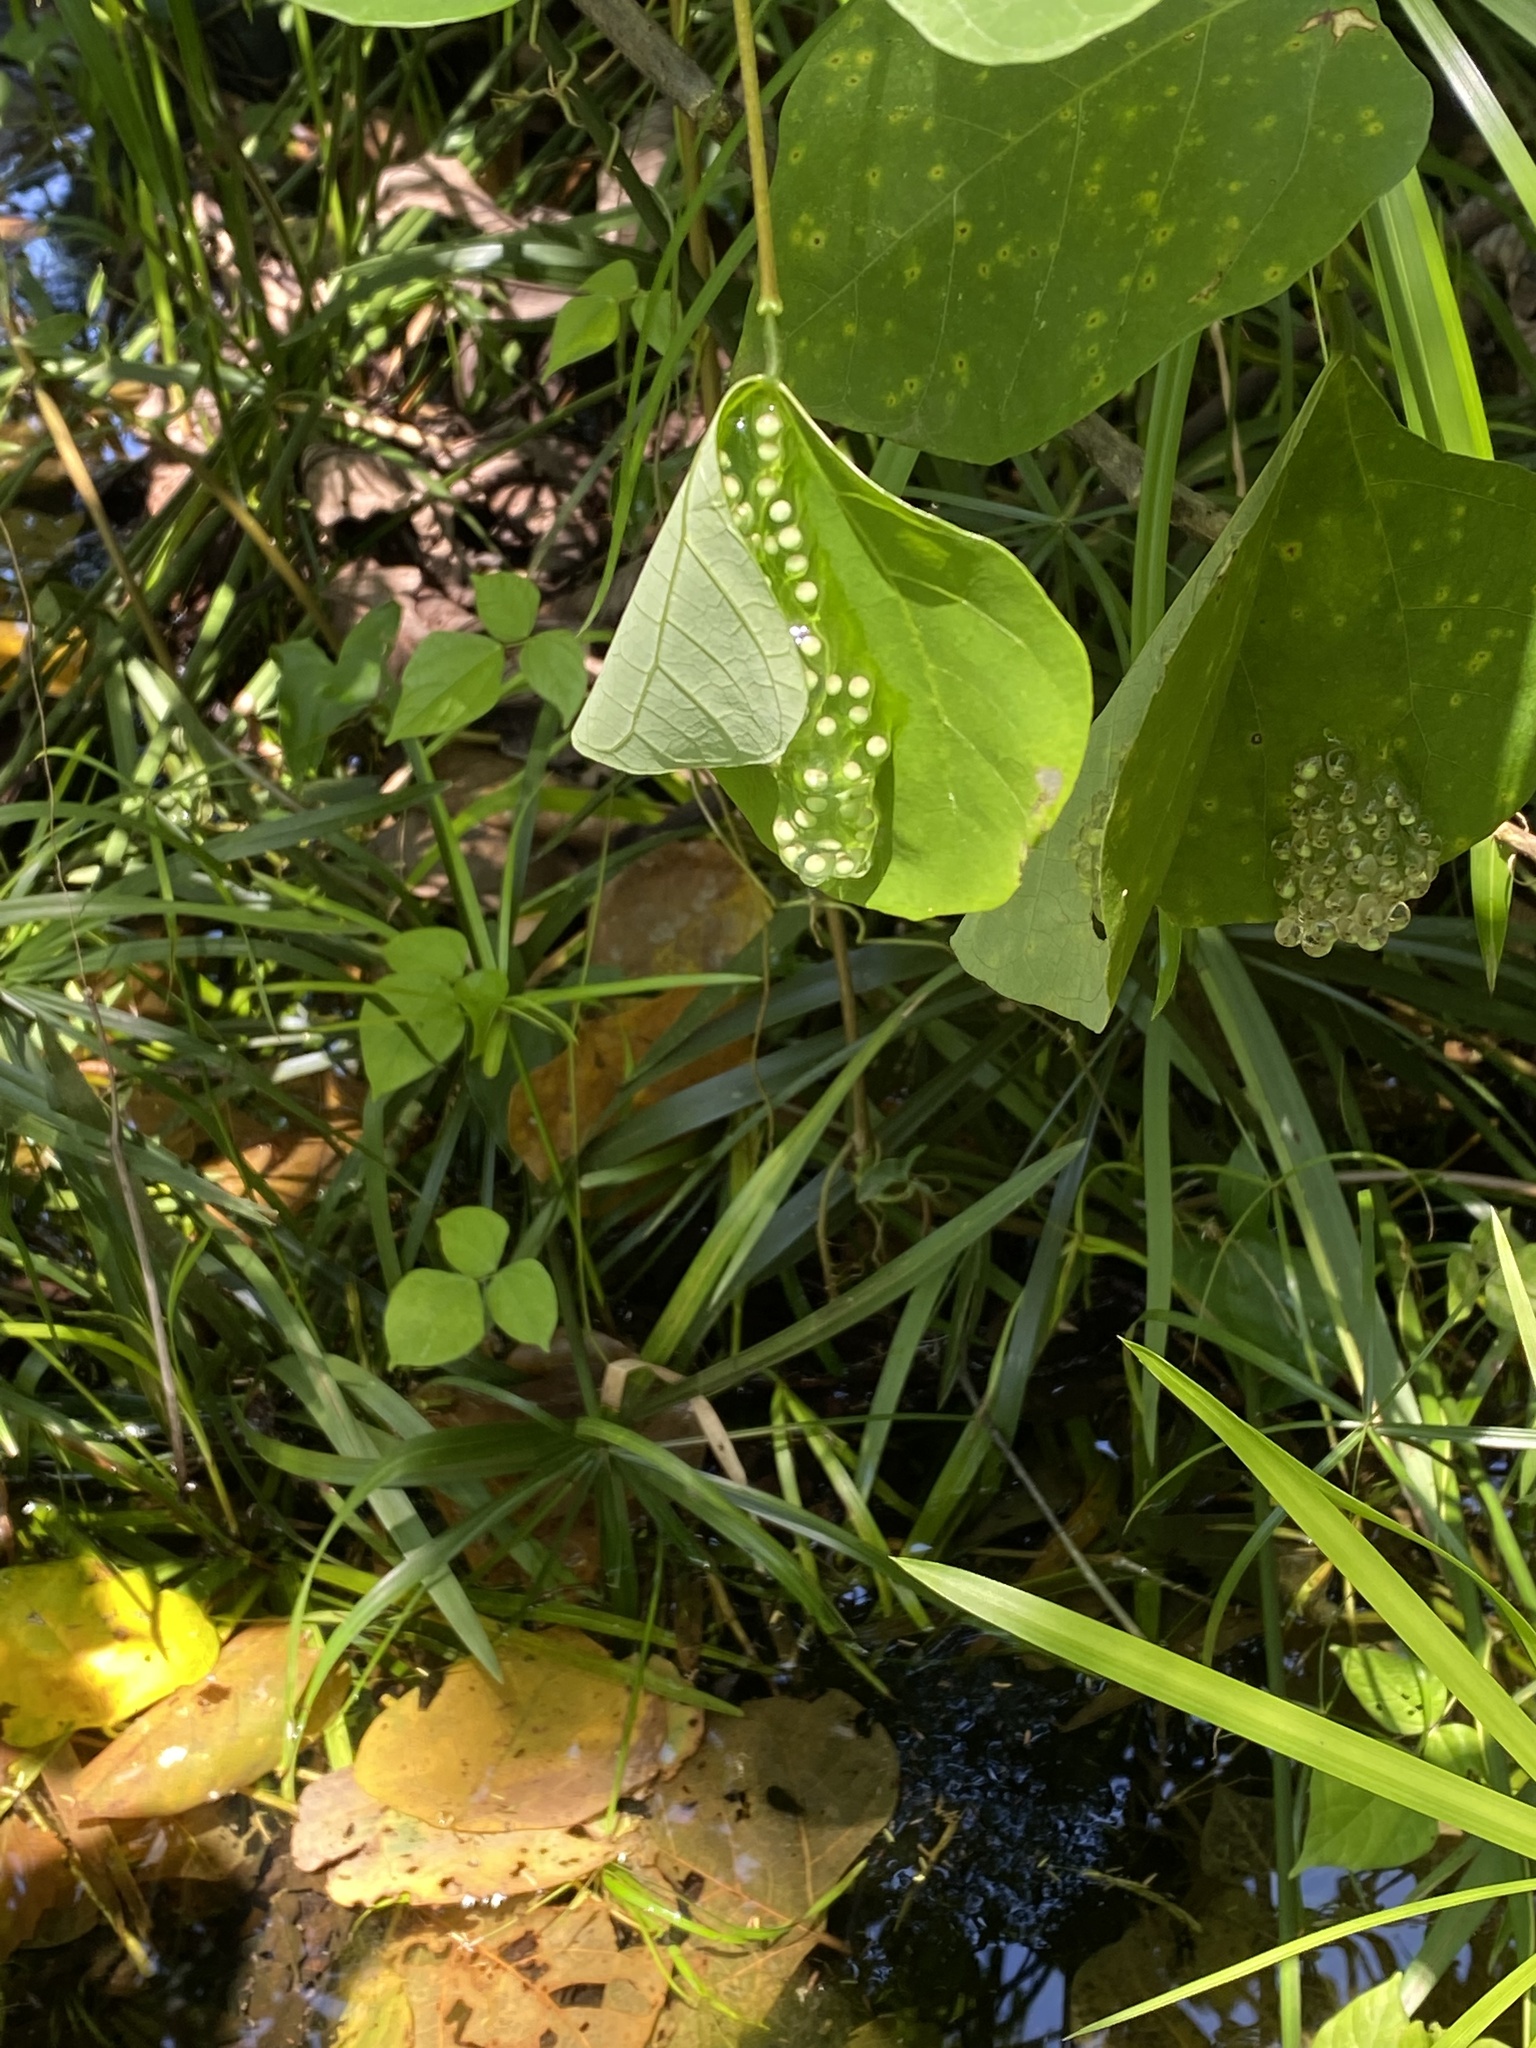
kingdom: Animalia
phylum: Chordata
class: Amphibia
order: Anura
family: Phyllomedusidae
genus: Agalychnis
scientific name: Agalychnis moreletii
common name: Black-eyed leaf frog
